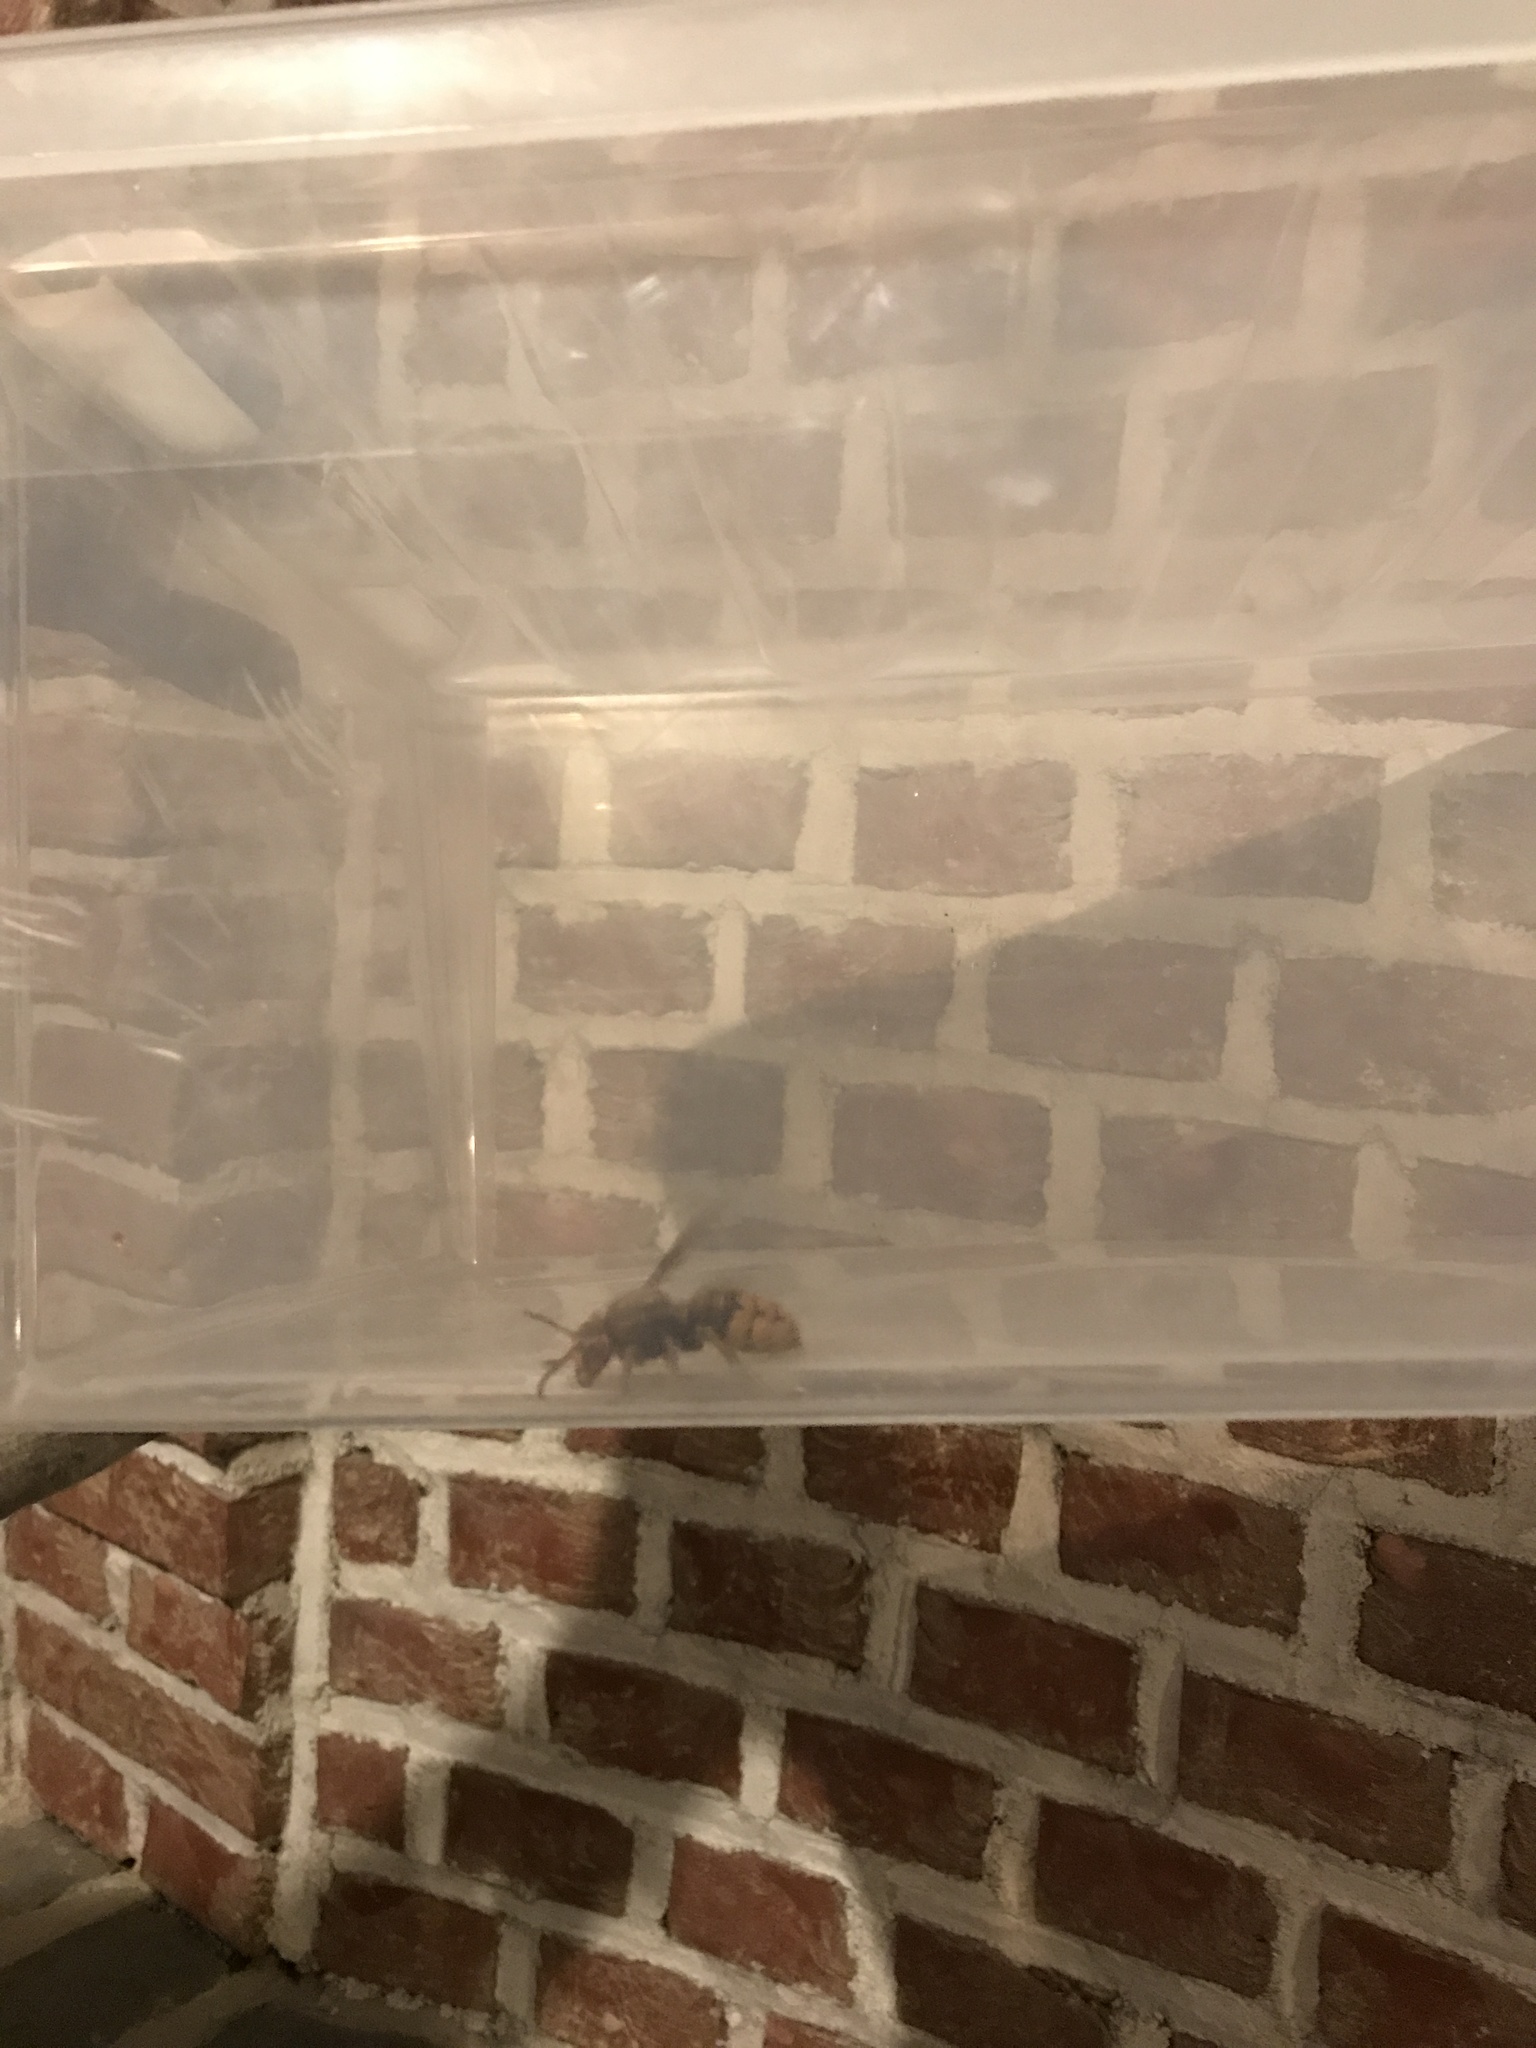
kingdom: Animalia
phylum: Arthropoda
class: Insecta
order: Hymenoptera
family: Vespidae
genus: Vespa
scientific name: Vespa crabro
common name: Hornet
